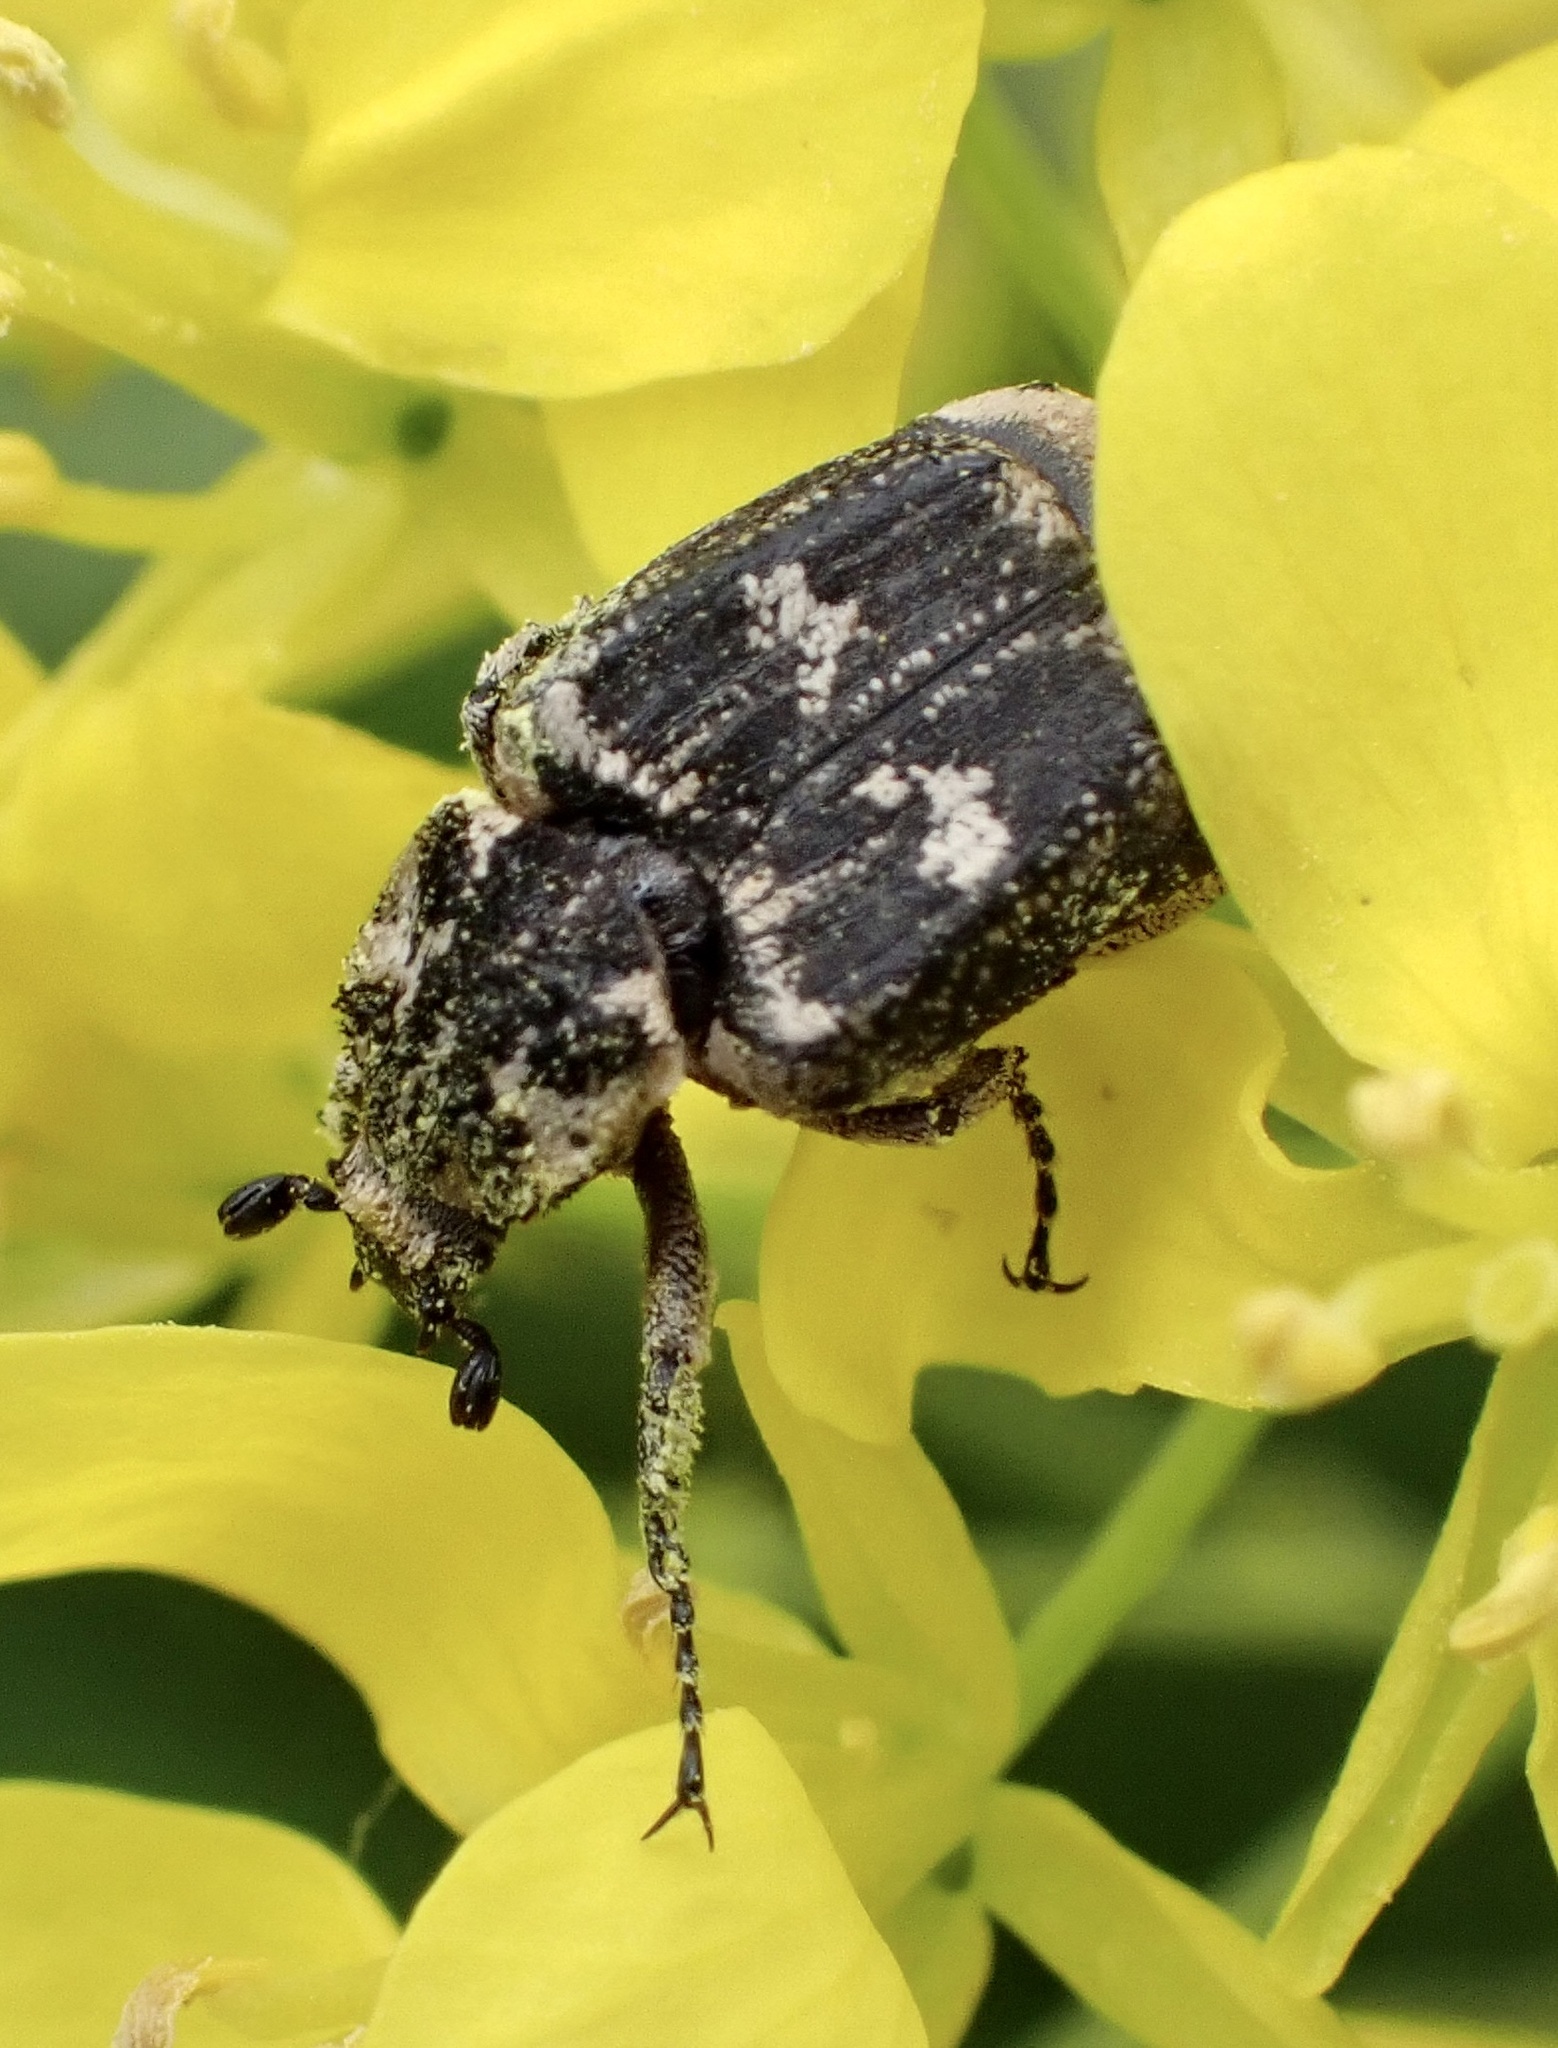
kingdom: Animalia
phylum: Arthropoda
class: Insecta
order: Coleoptera
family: Scarabaeidae
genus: Valgus
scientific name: Valgus hemipterus
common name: Bug flower chafer
